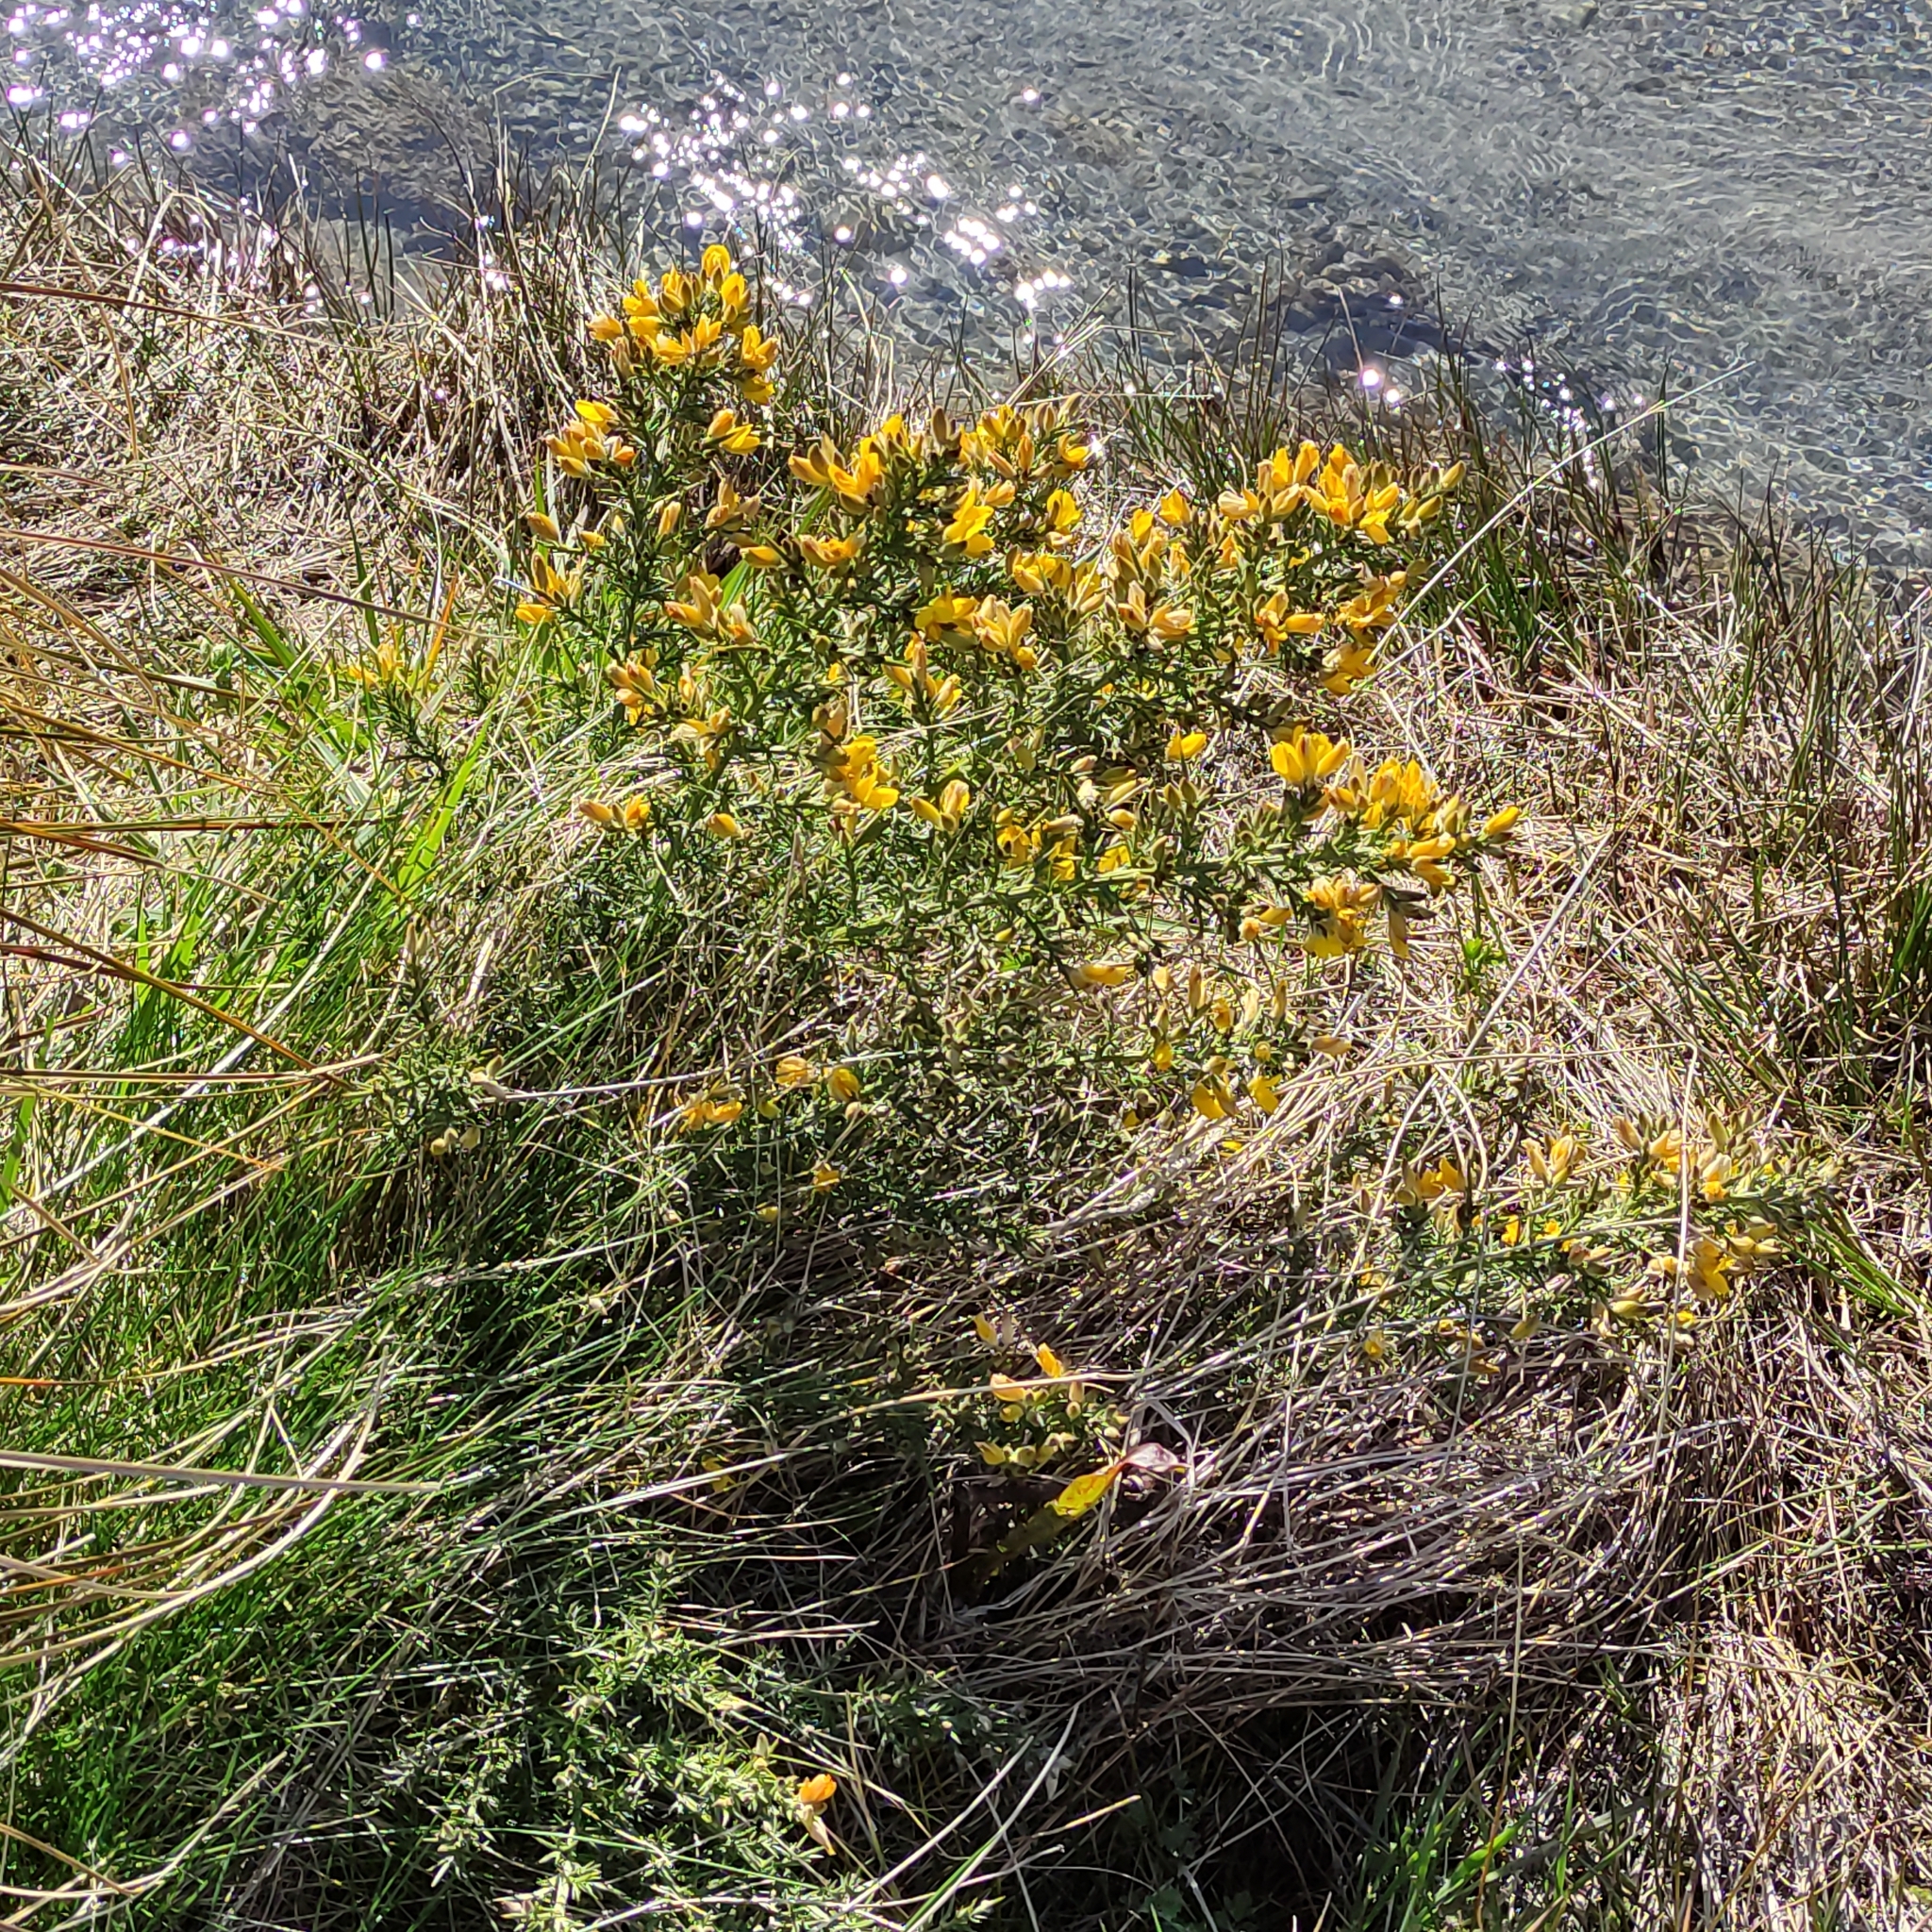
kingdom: Plantae
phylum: Tracheophyta
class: Magnoliopsida
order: Fabales
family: Fabaceae
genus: Ulex
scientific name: Ulex europaeus
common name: Common gorse
